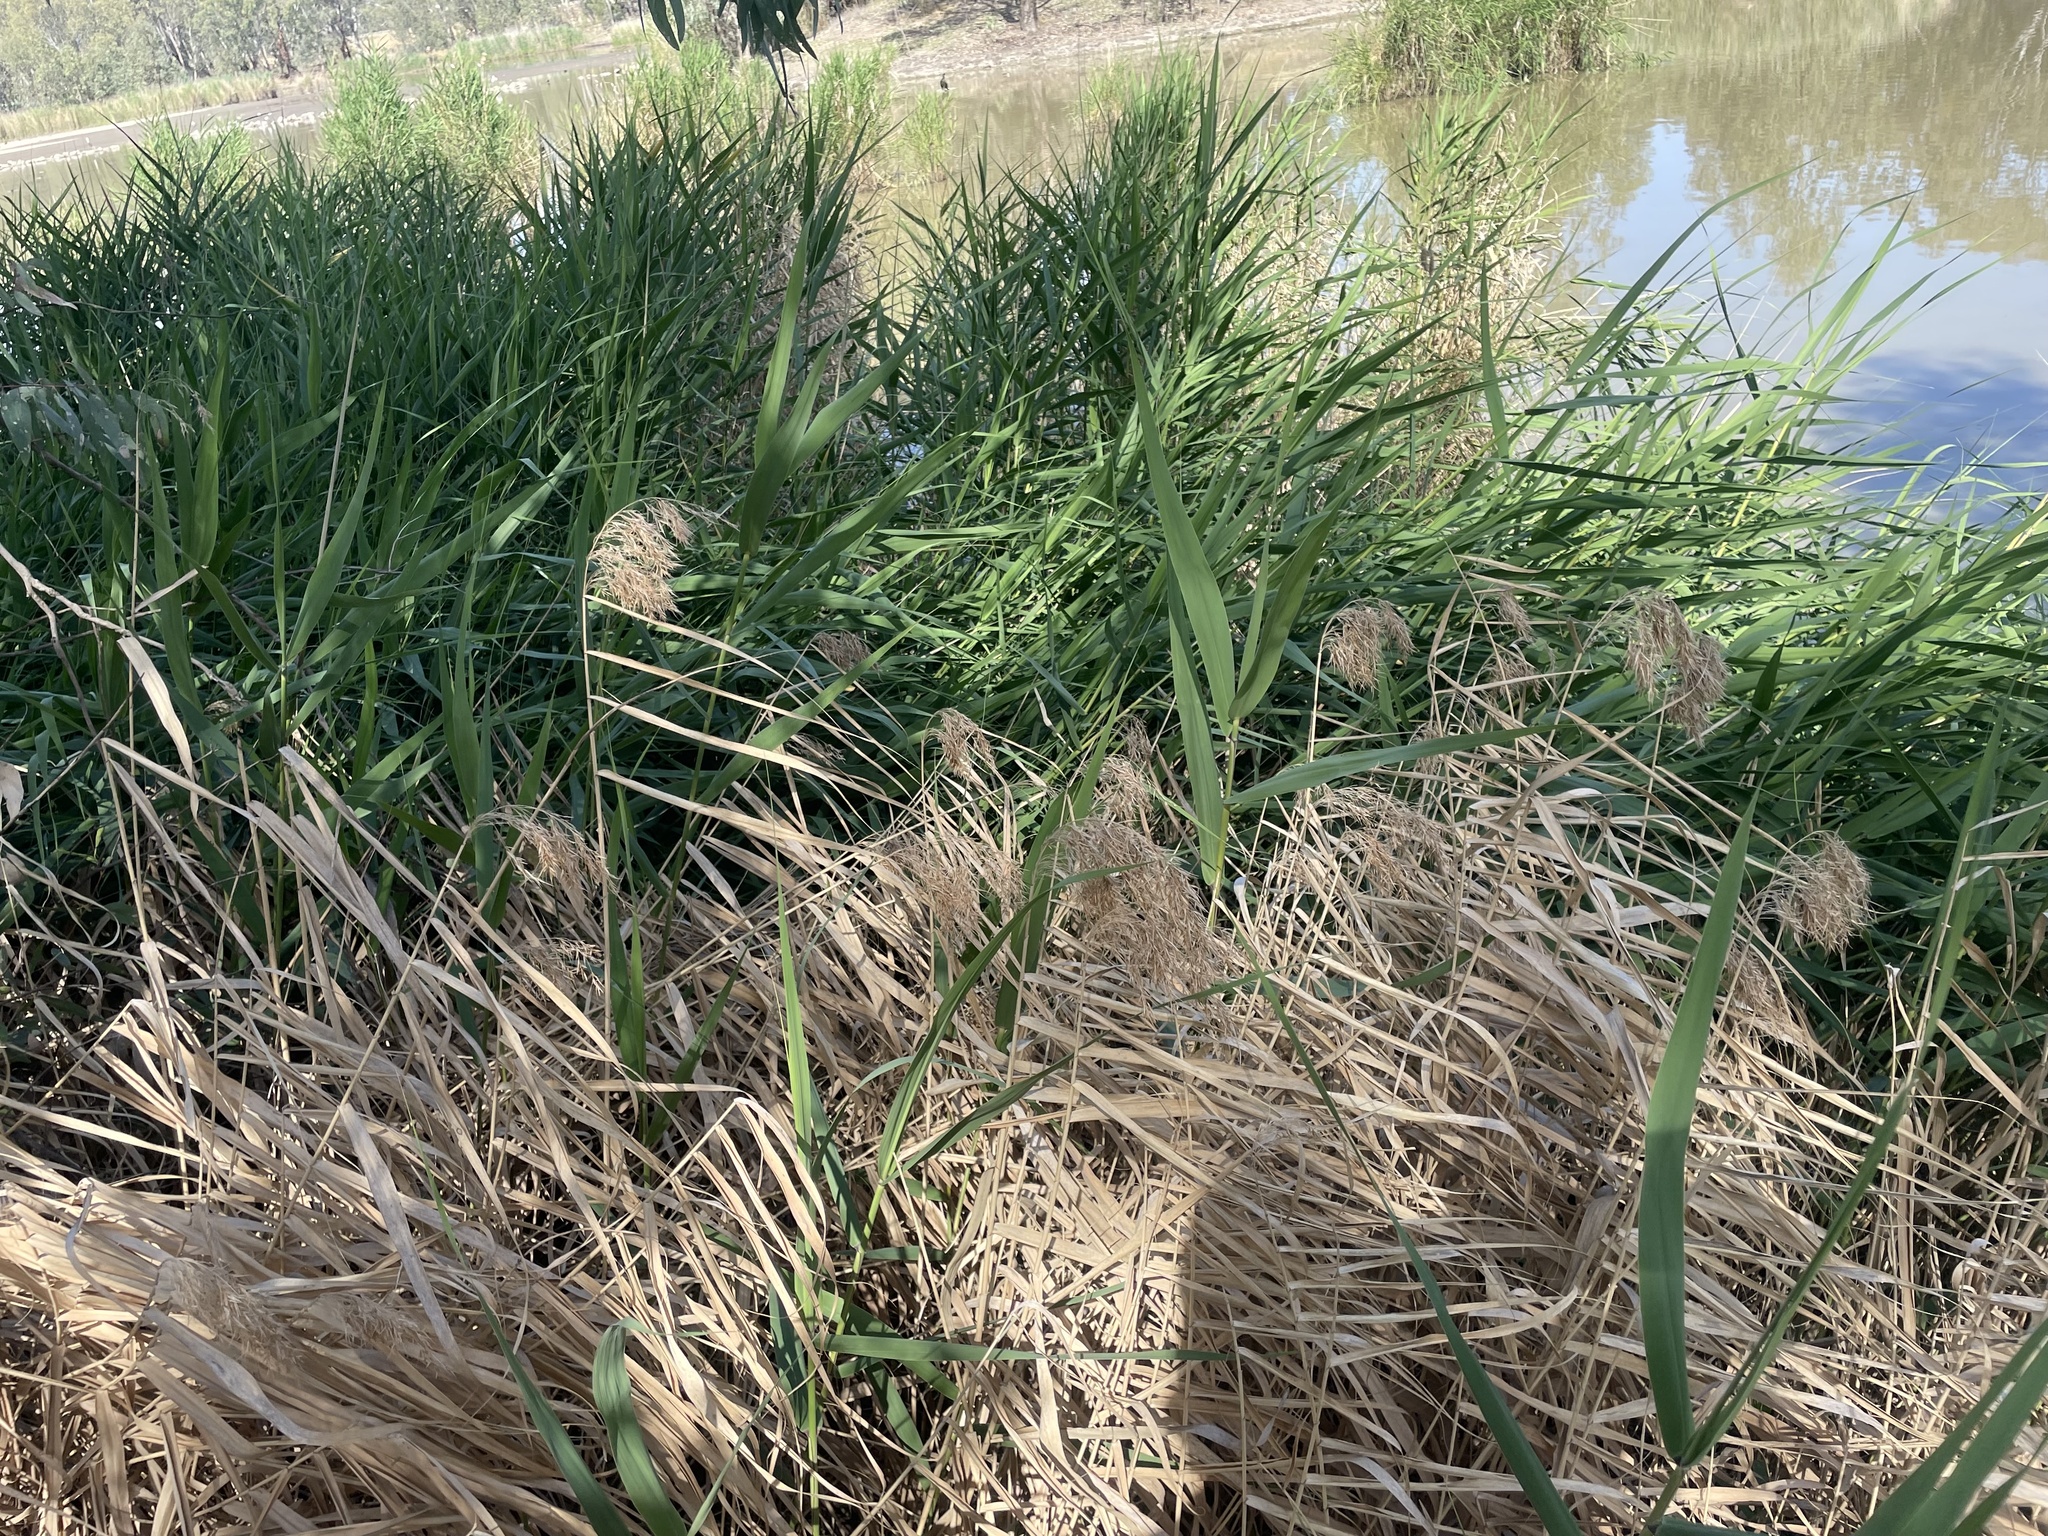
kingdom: Plantae
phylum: Tracheophyta
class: Liliopsida
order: Poales
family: Poaceae
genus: Phragmites
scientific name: Phragmites australis
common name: Common reed
